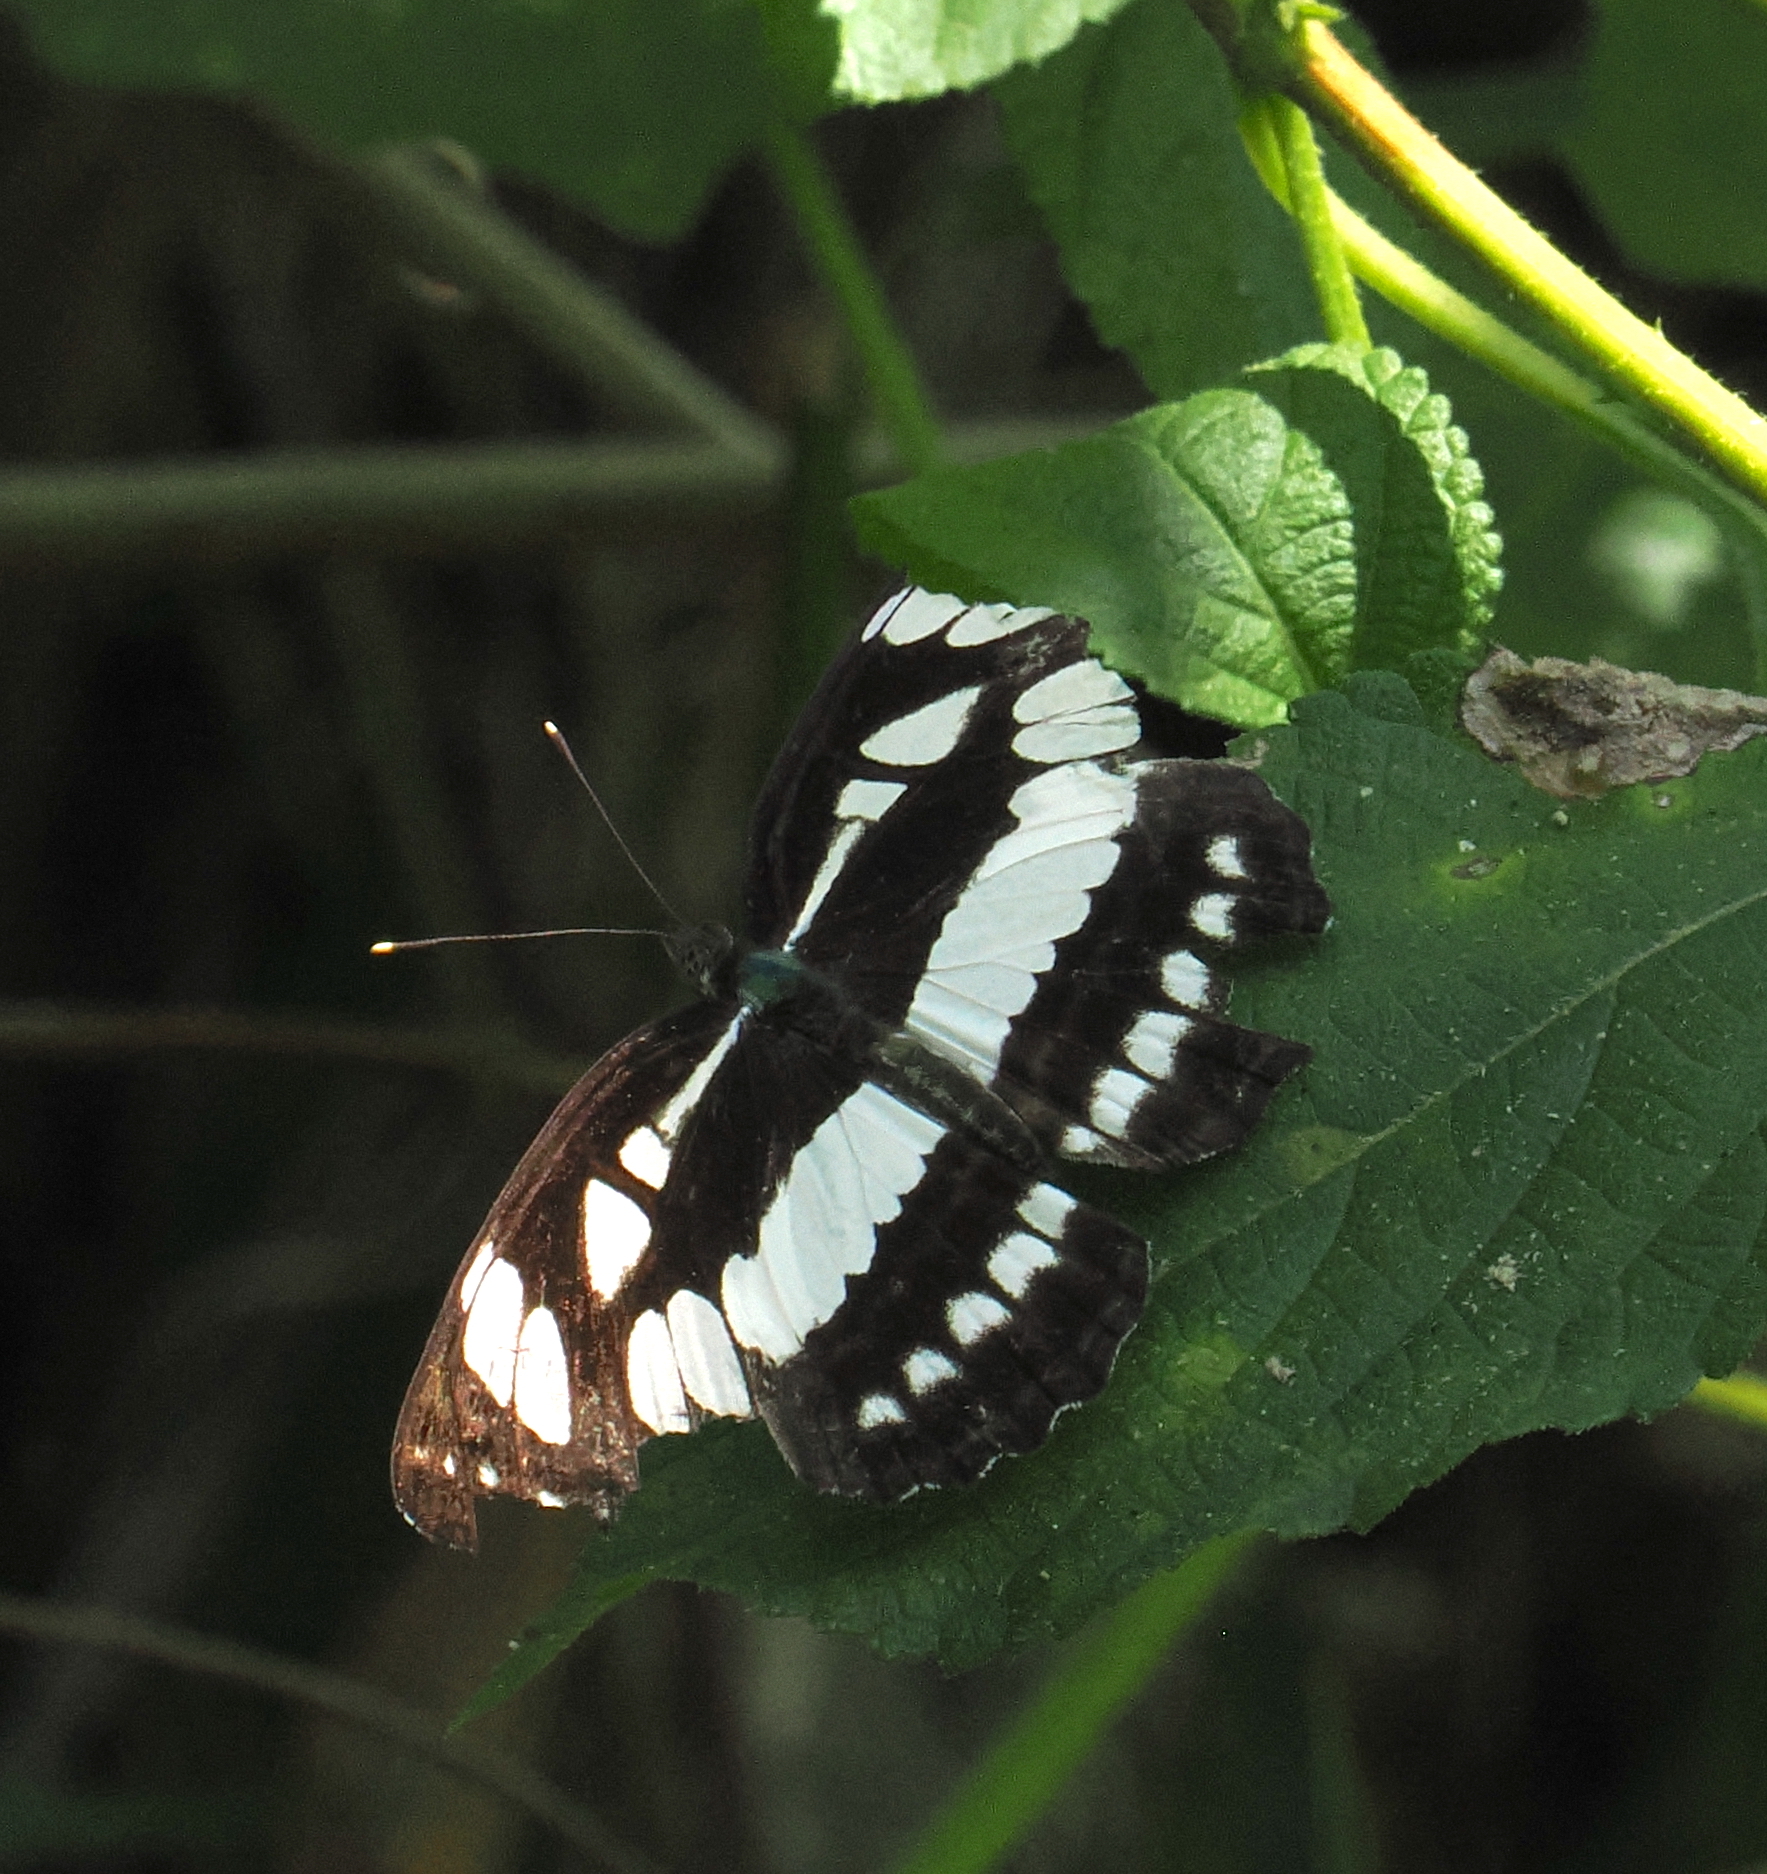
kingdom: Animalia
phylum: Arthropoda
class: Insecta
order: Lepidoptera
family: Nymphalidae
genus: Neptis
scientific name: Neptis hylas
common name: Common sailer
